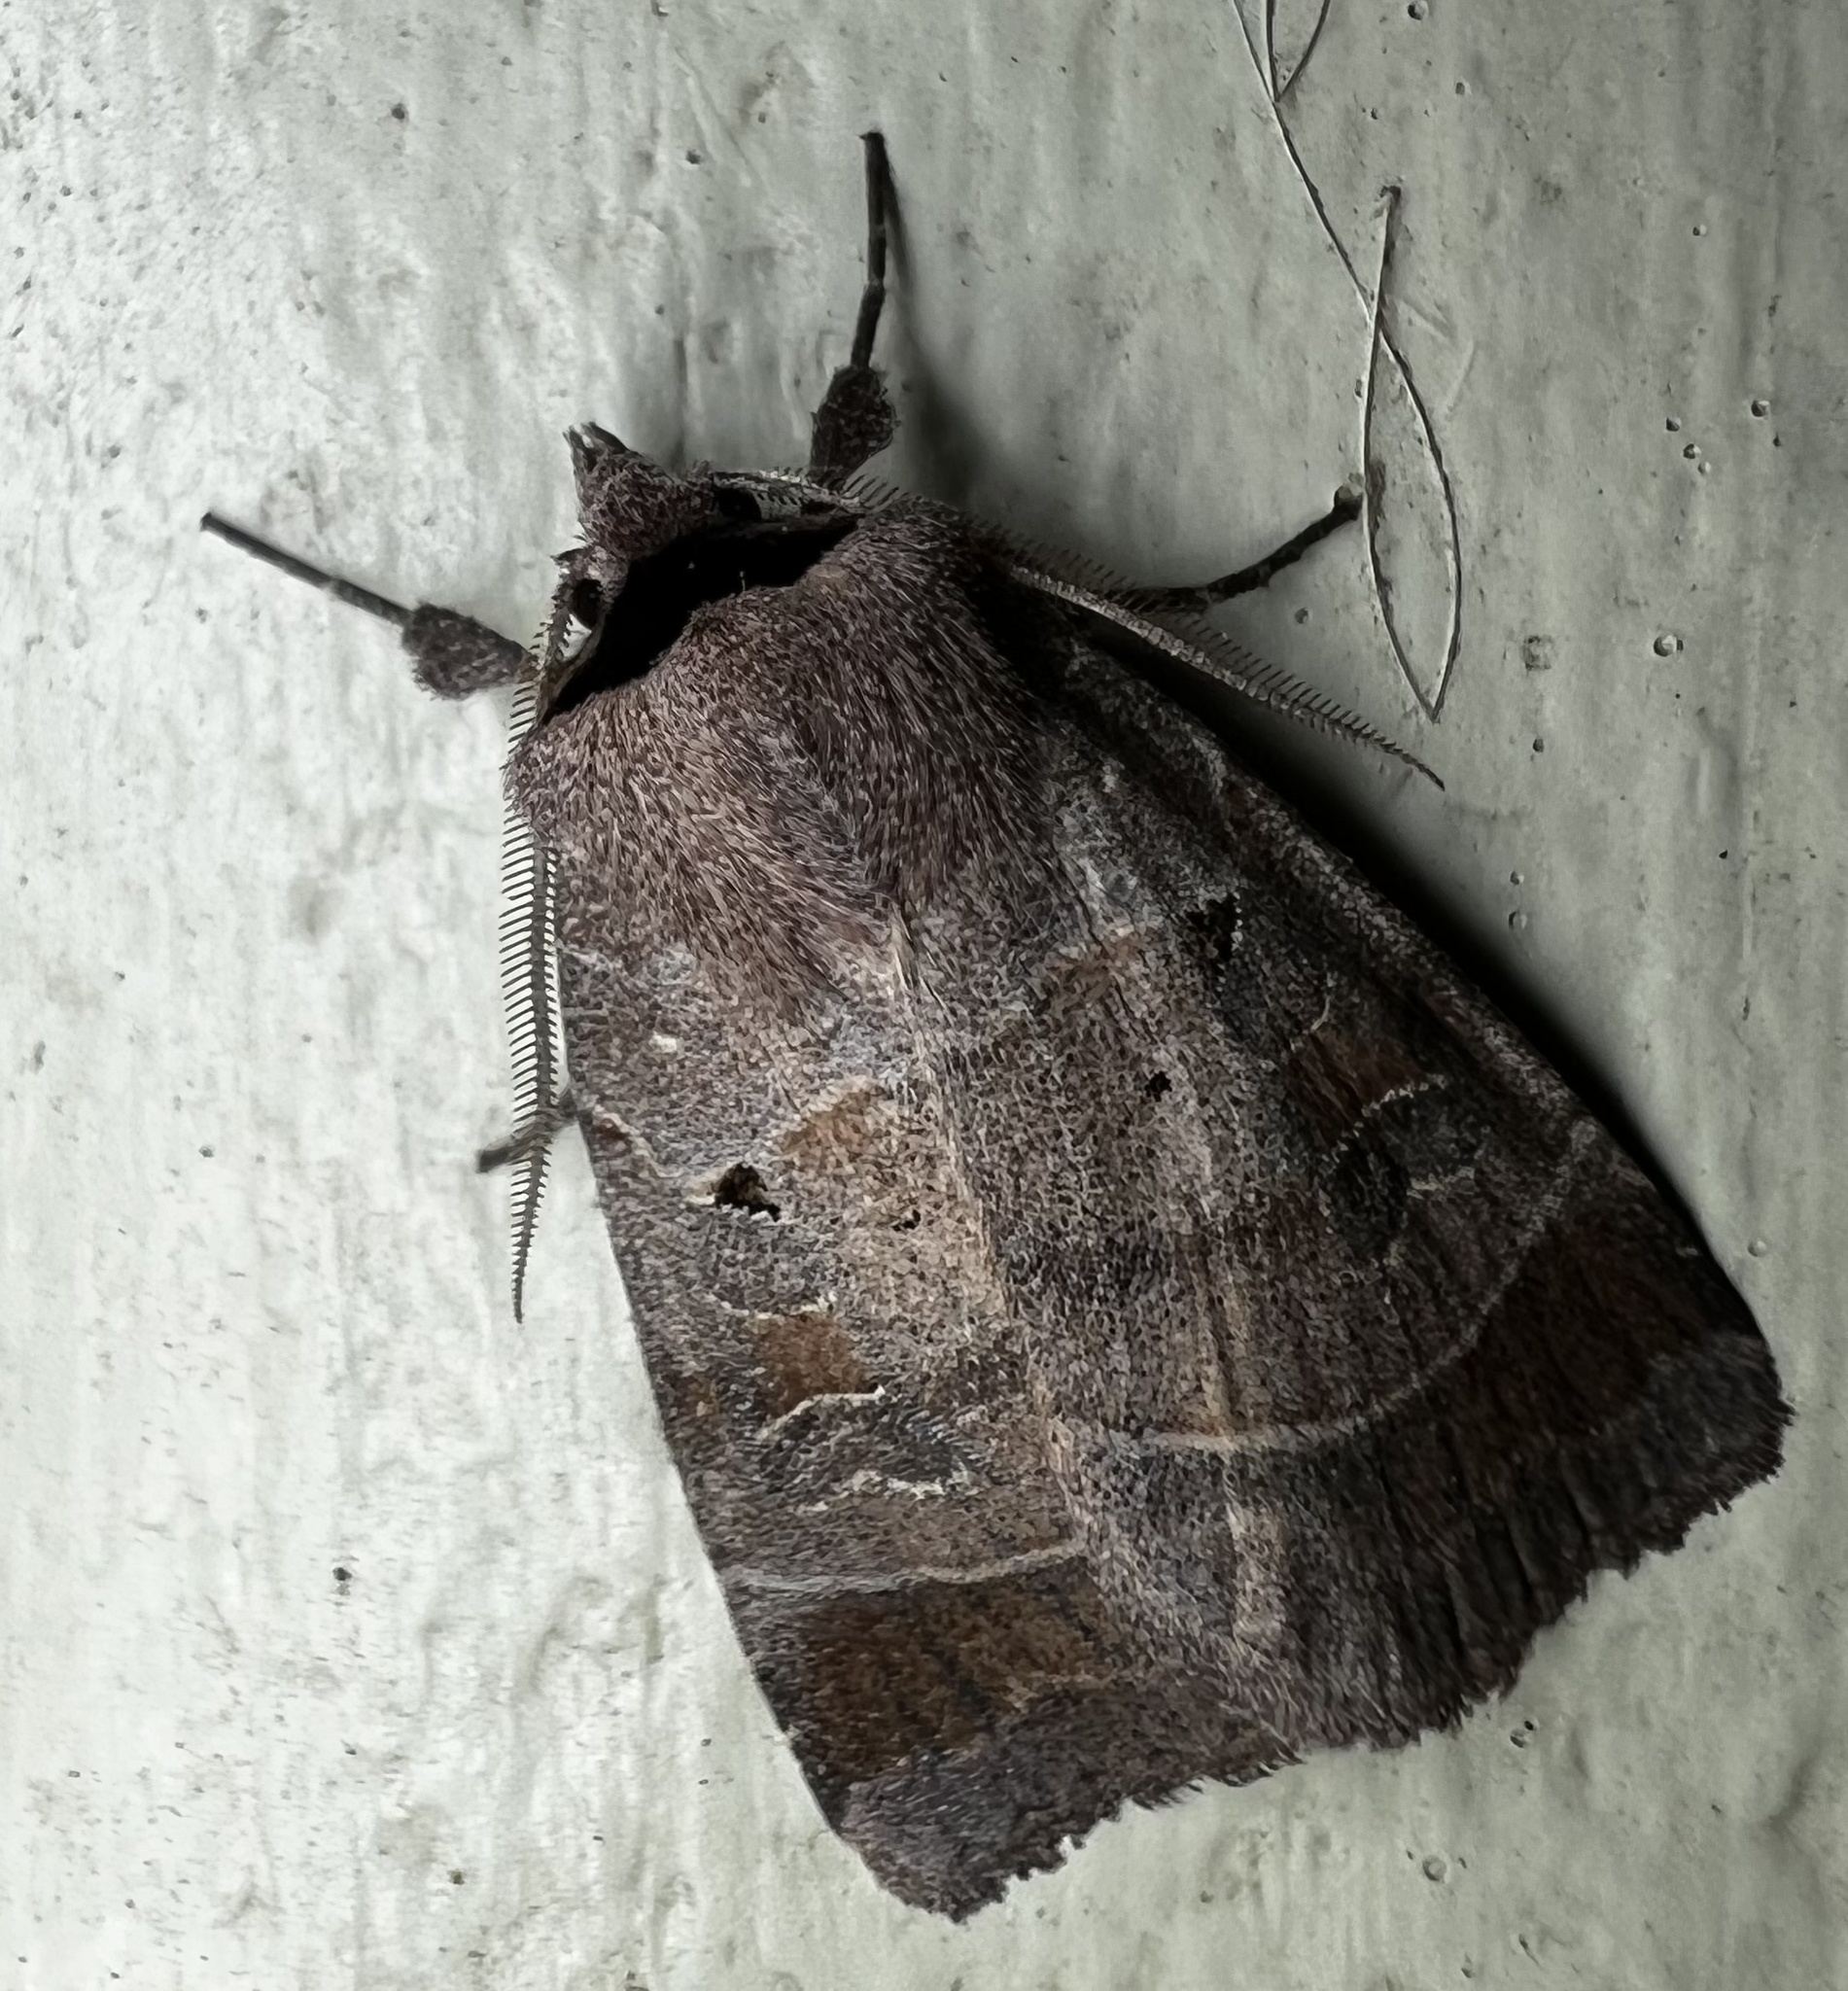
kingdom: Animalia
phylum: Arthropoda
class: Insecta
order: Lepidoptera
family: Noctuidae
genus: Agnorisma
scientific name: Agnorisma badinodis
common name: Pale-banded dart
